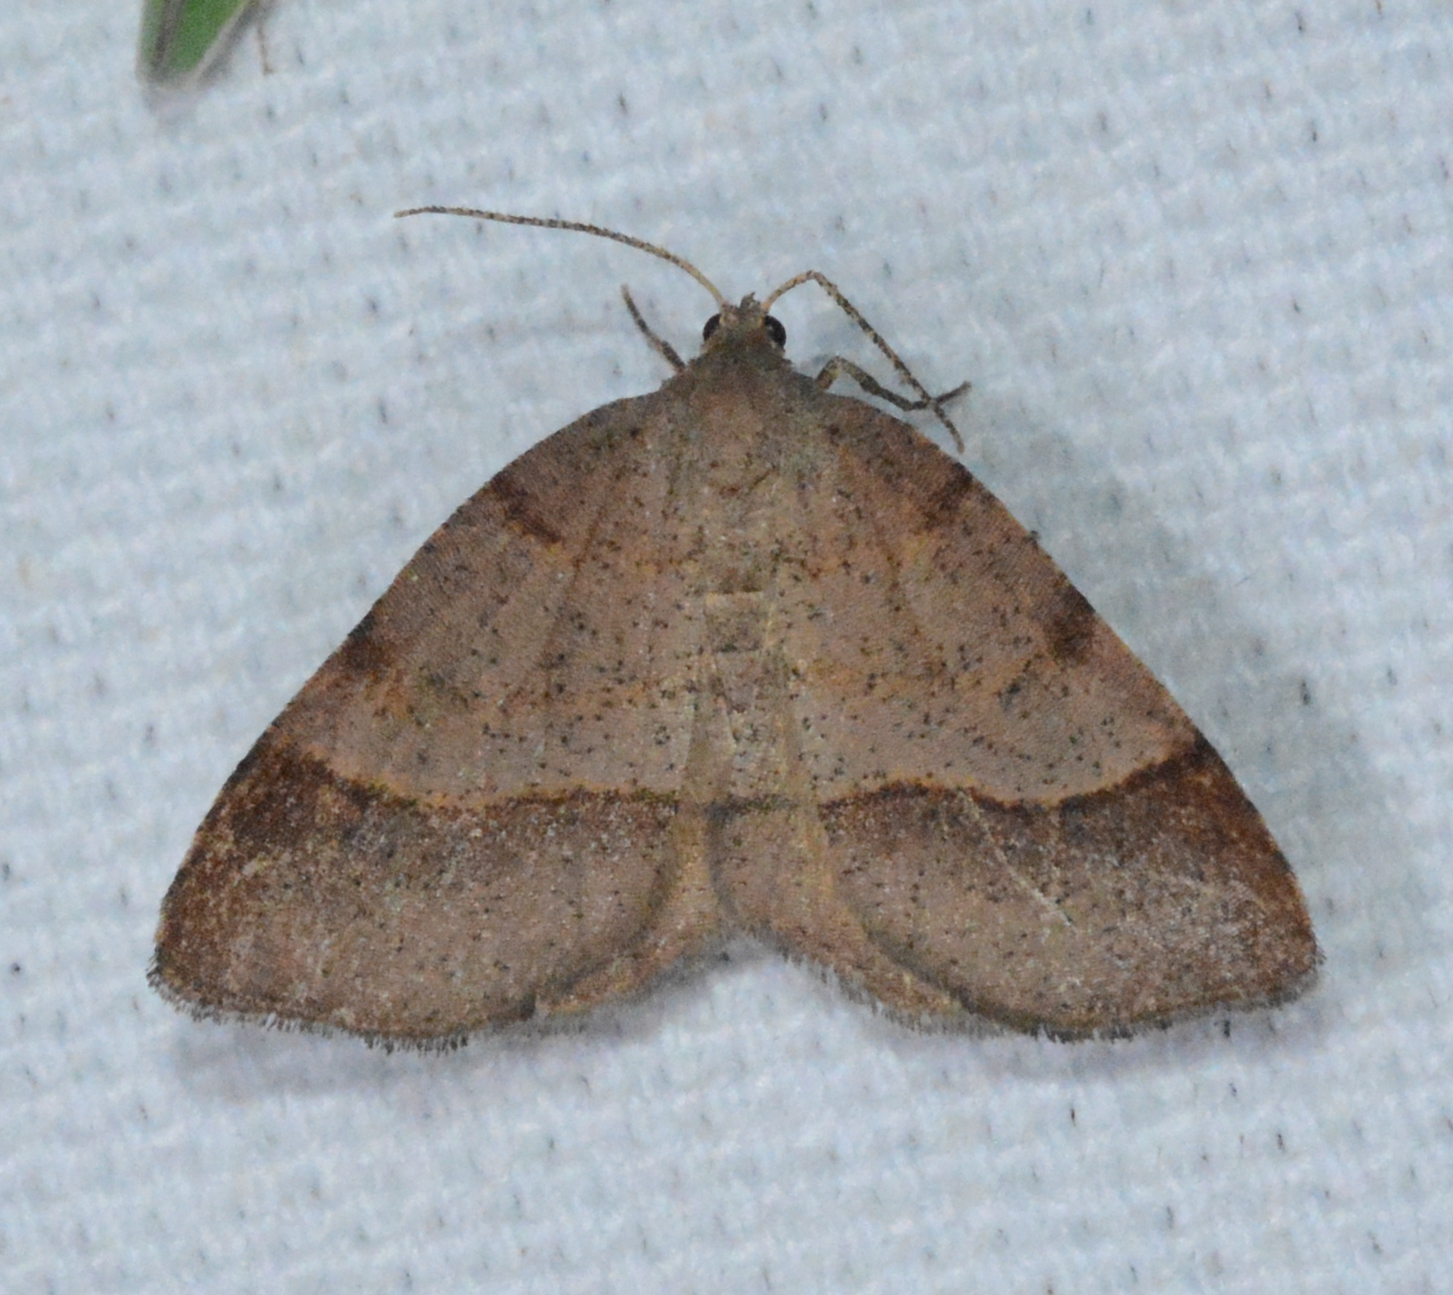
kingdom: Animalia
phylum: Arthropoda
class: Insecta
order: Lepidoptera
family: Geometridae
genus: Mellilla
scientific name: Mellilla xanthometata
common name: Orange wing moth
